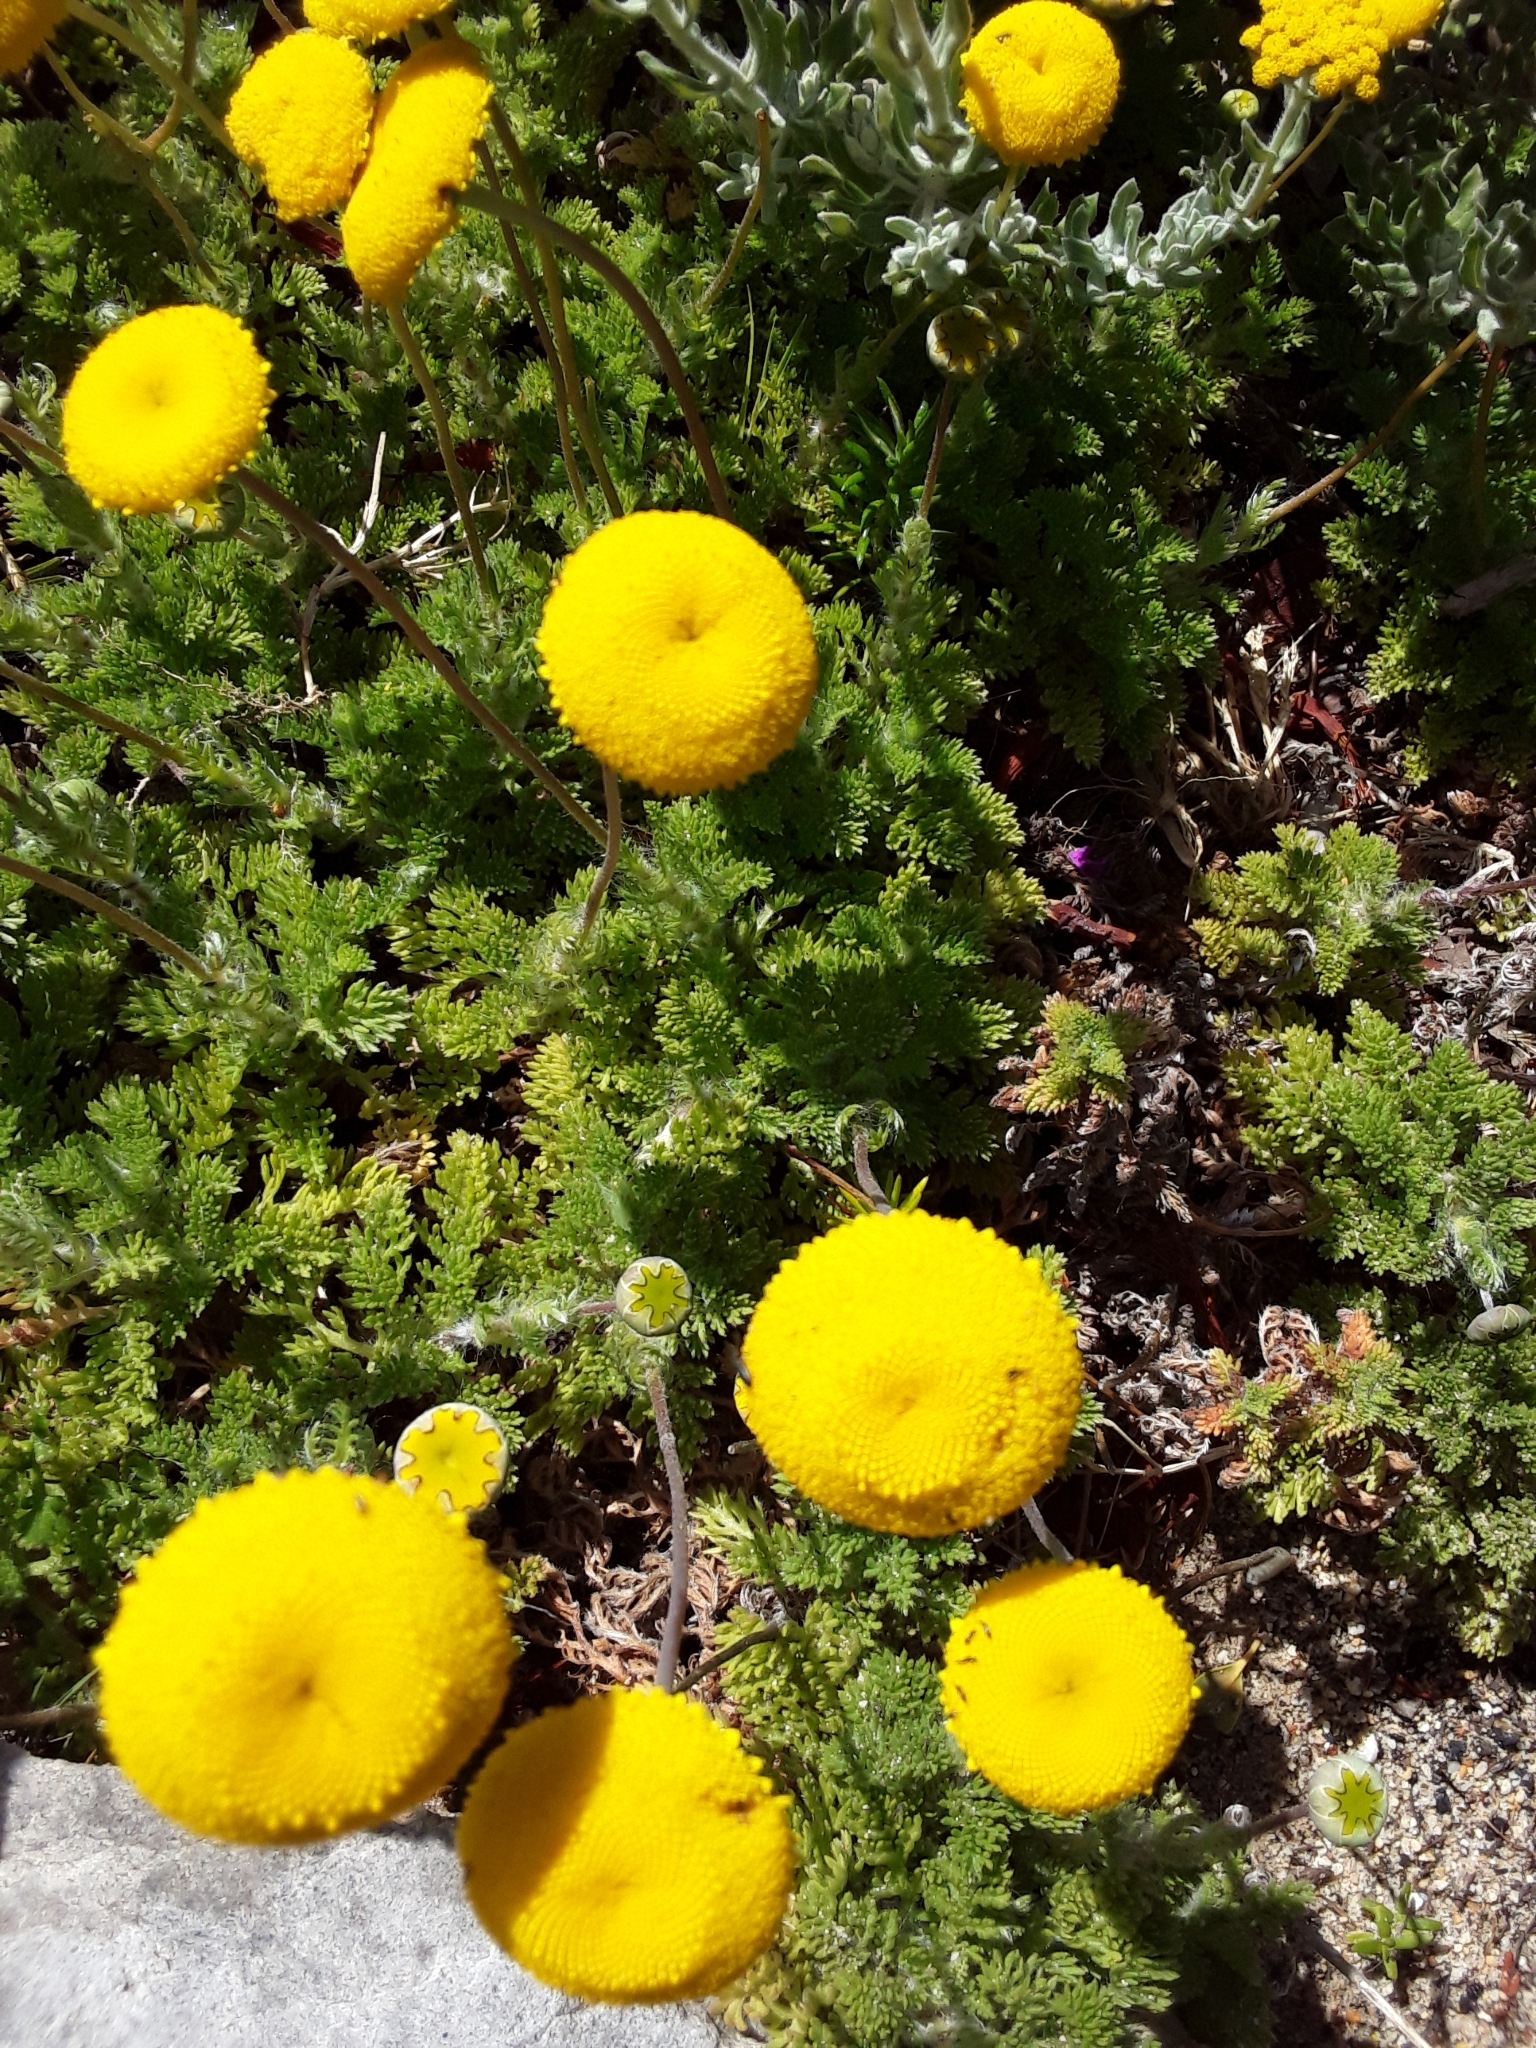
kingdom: Plantae
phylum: Tracheophyta
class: Magnoliopsida
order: Asterales
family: Asteraceae
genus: Cotula
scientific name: Cotula discolor
